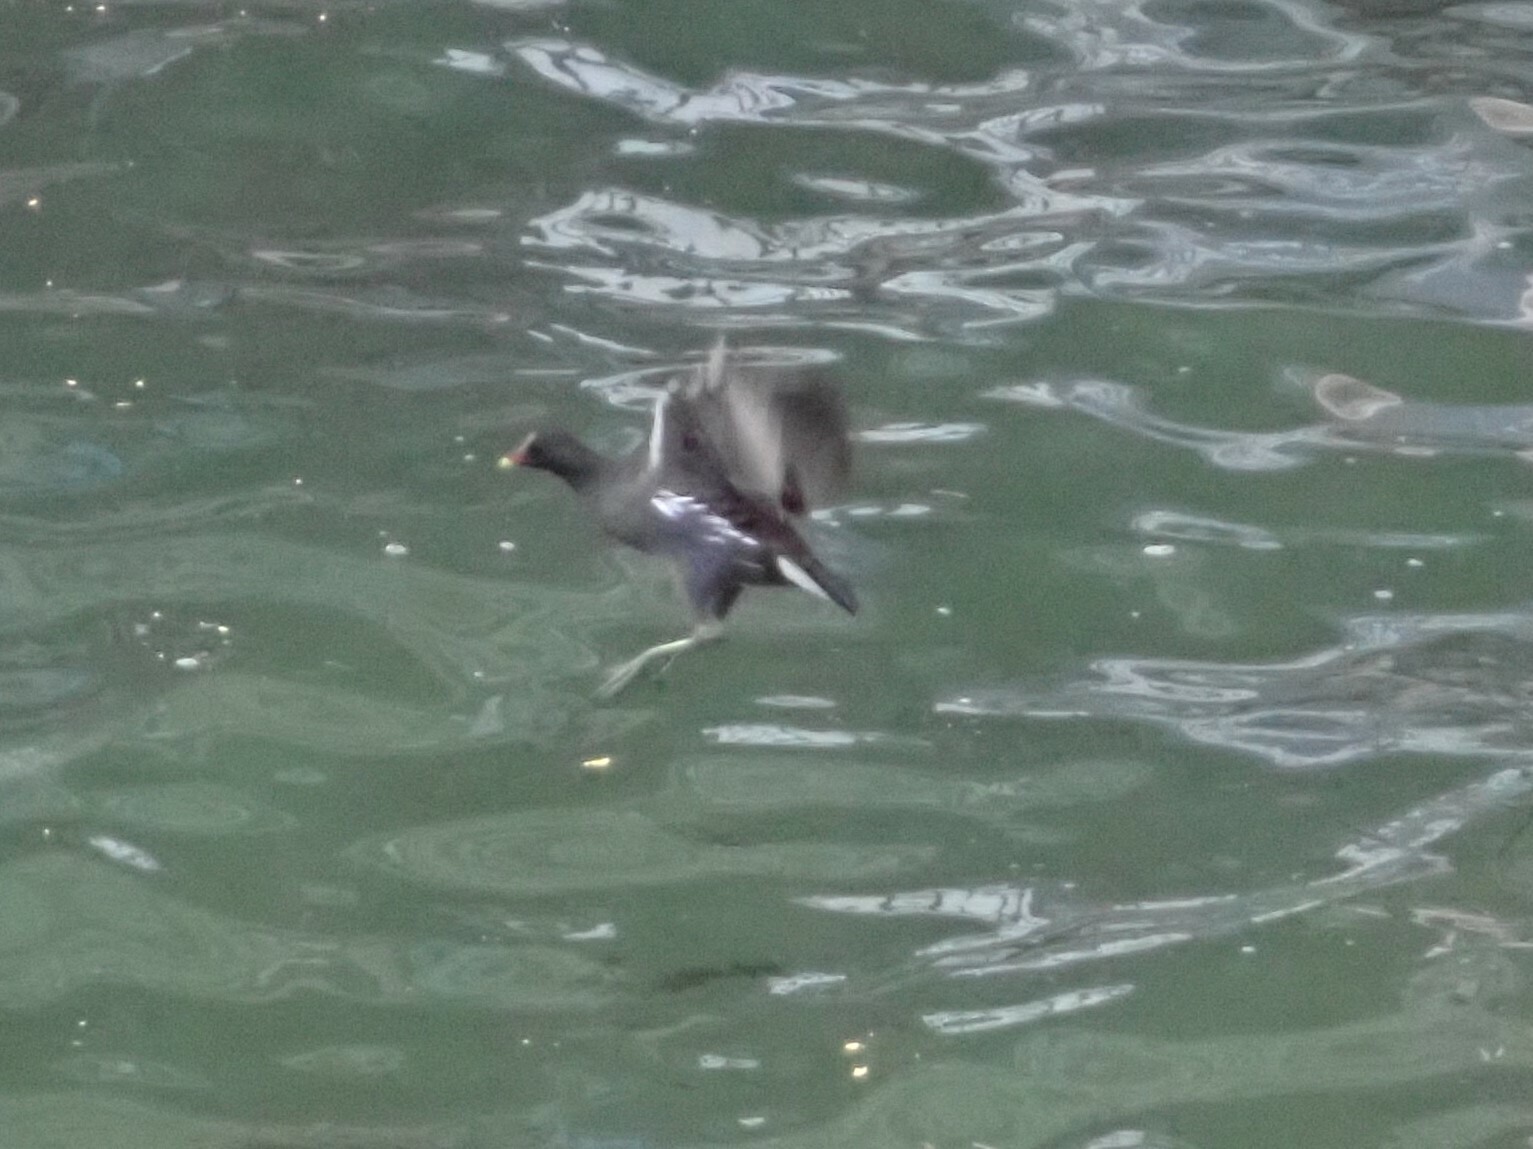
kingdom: Animalia
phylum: Chordata
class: Aves
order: Gruiformes
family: Rallidae
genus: Gallinula
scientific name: Gallinula chloropus
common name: Common moorhen
